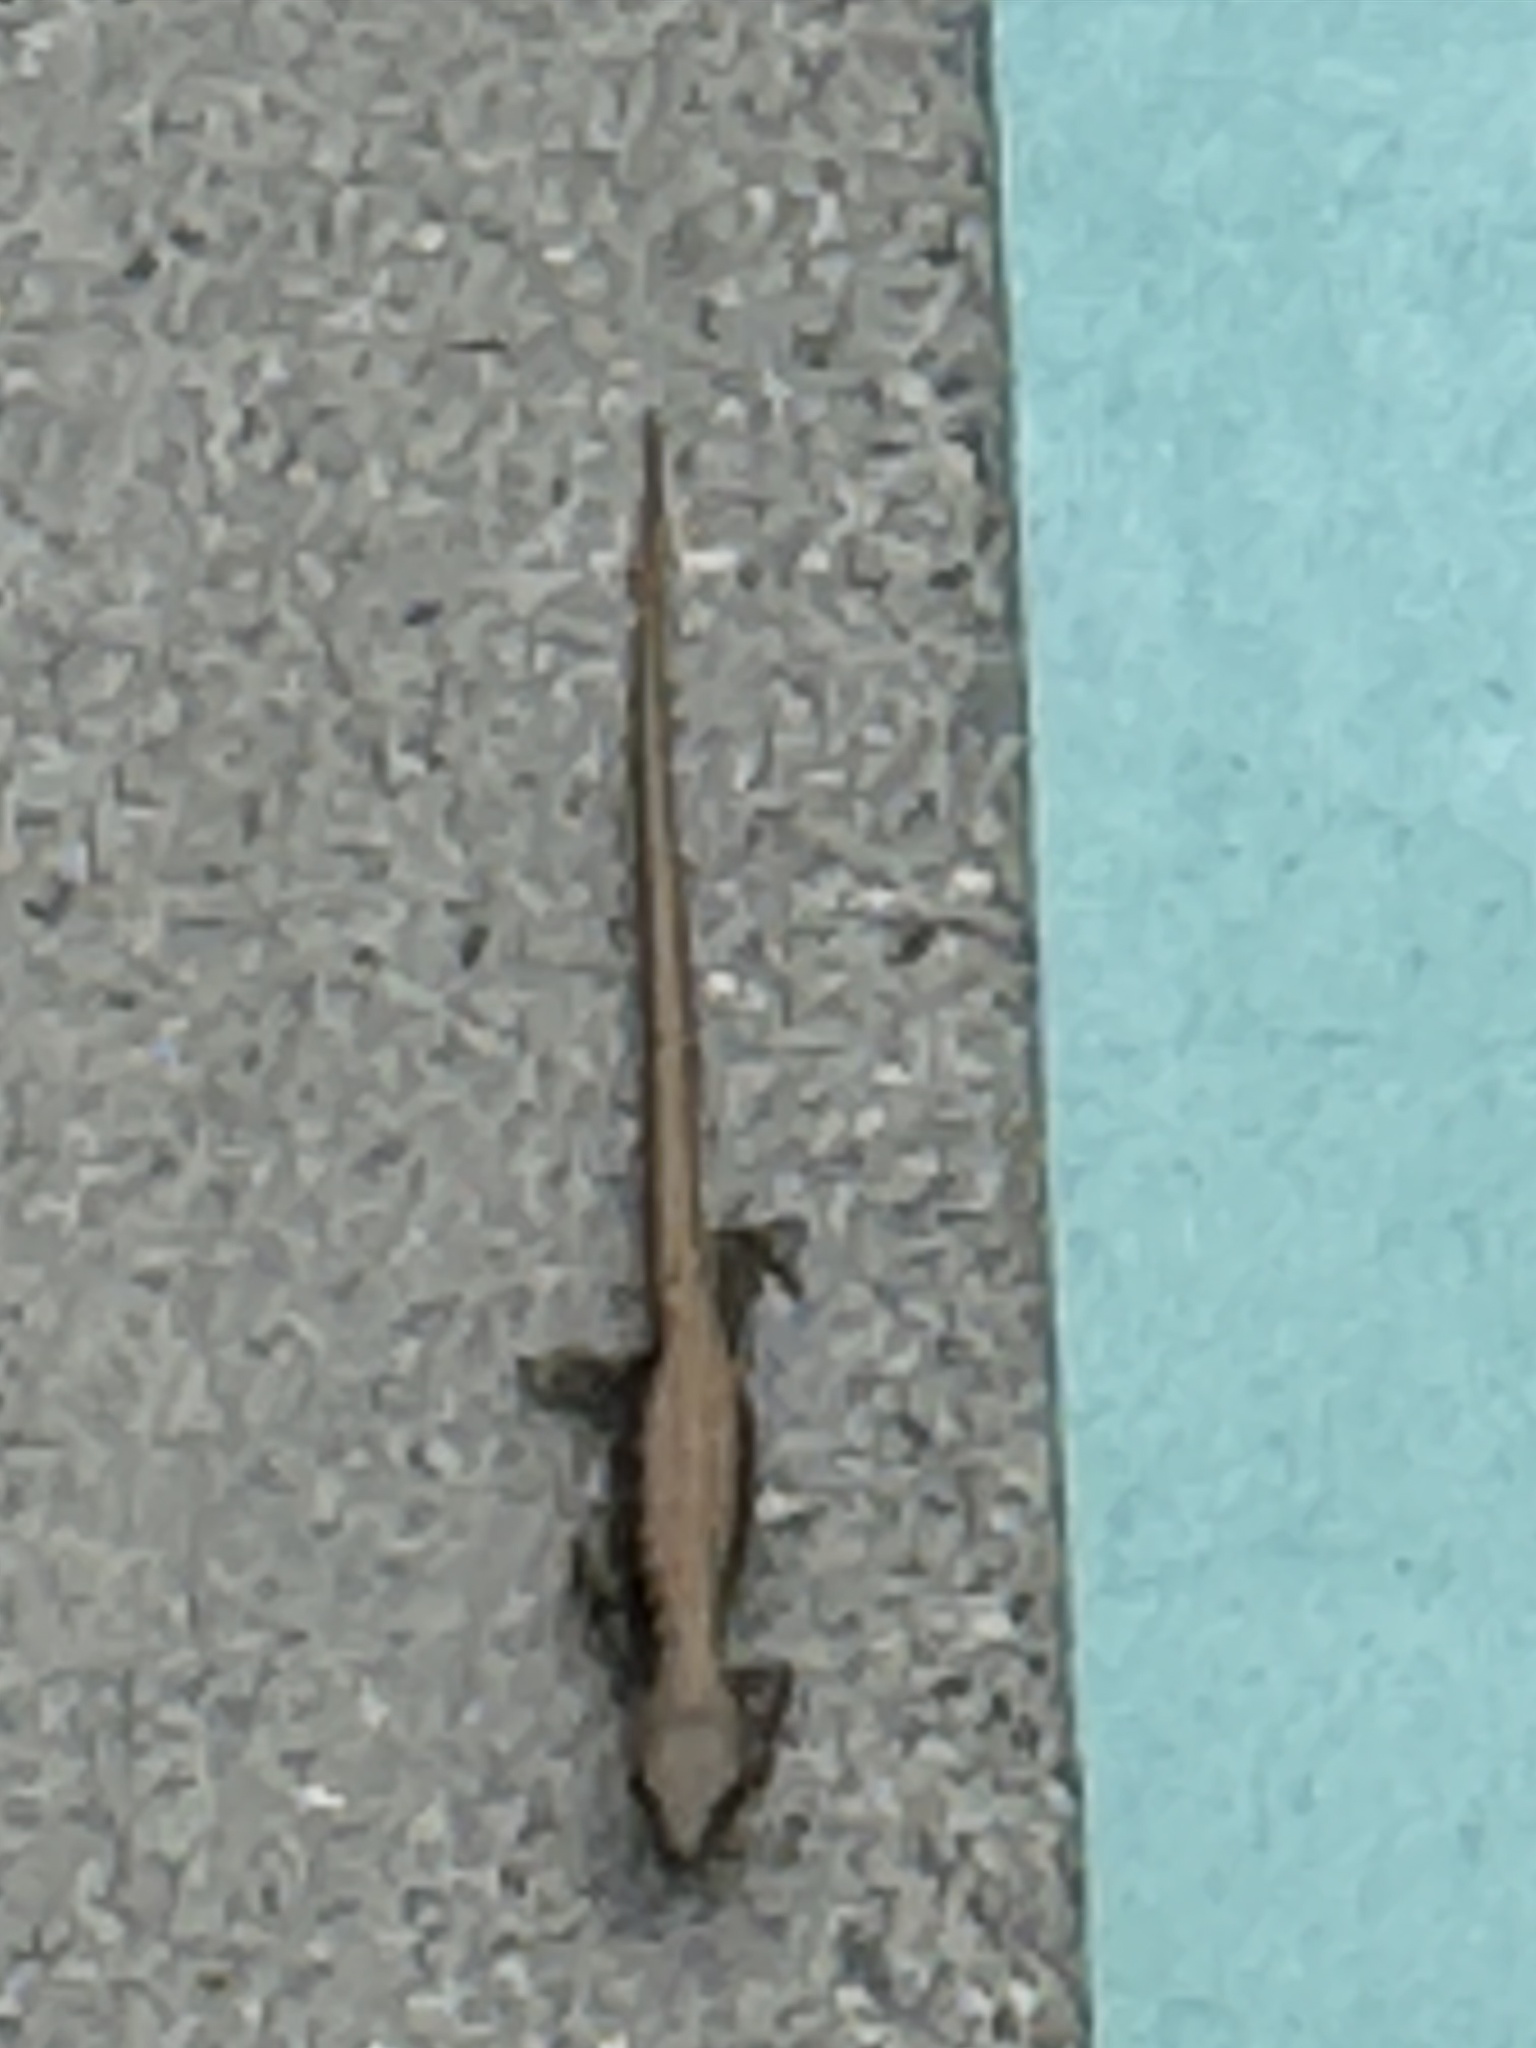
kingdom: Animalia
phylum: Chordata
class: Squamata
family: Anguidae
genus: Elgaria
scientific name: Elgaria multicarinata
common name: Southern alligator lizard
